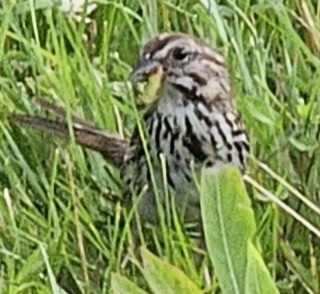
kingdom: Animalia
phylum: Chordata
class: Aves
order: Passeriformes
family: Passerellidae
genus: Melospiza
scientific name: Melospiza melodia
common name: Song sparrow
